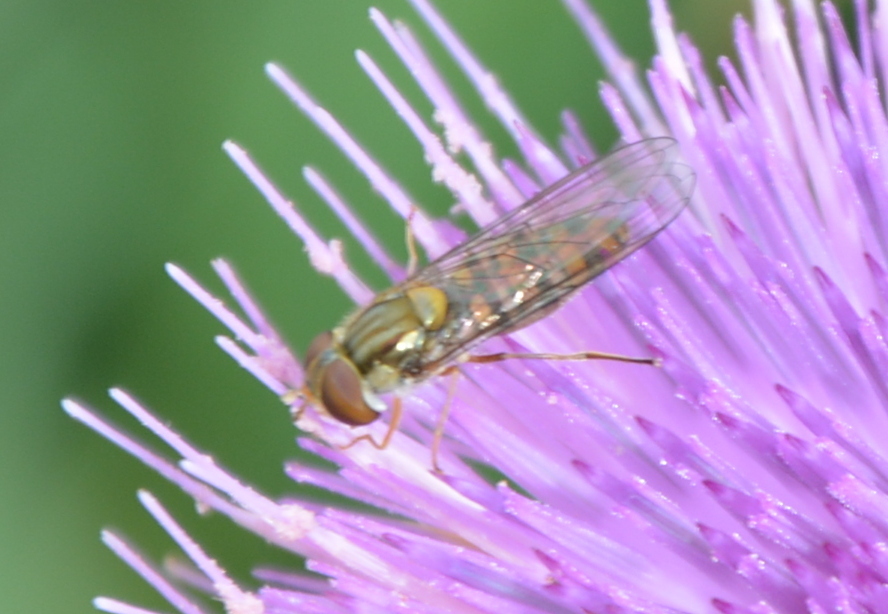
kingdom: Animalia
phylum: Arthropoda
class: Insecta
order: Diptera
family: Syrphidae
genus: Episyrphus
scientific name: Episyrphus balteatus
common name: Marmalade hoverfly
